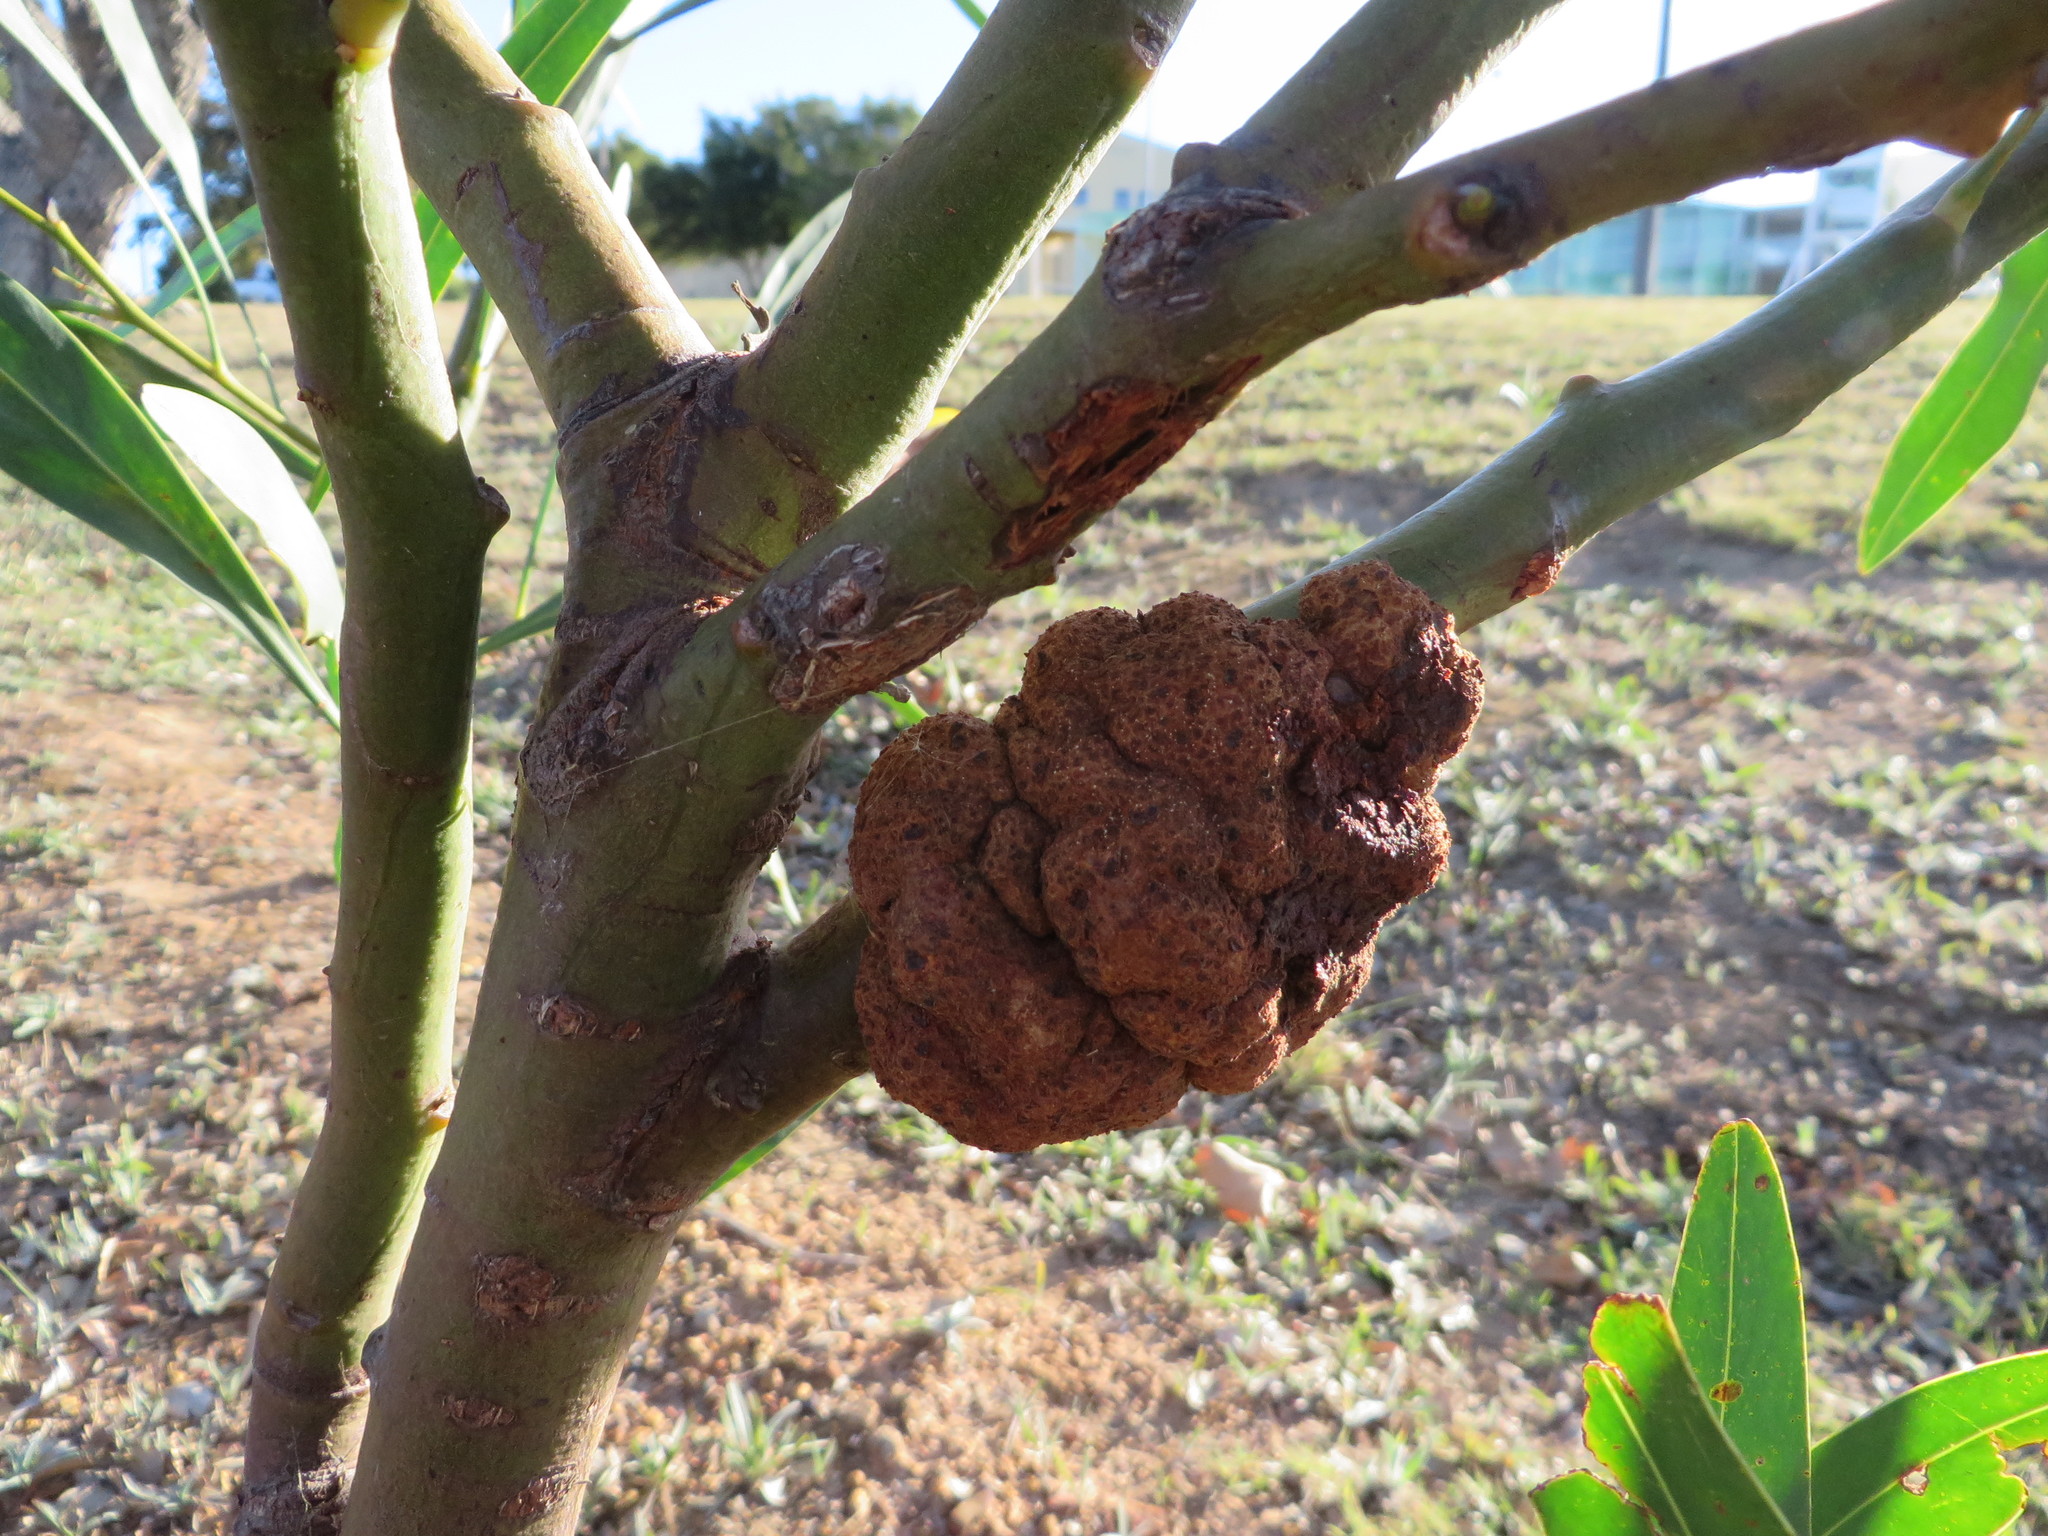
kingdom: Fungi
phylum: Basidiomycota
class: Pucciniomycetes
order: Pucciniales
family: Uromycladiaceae
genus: Uromycladium
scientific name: Uromycladium morrisii
